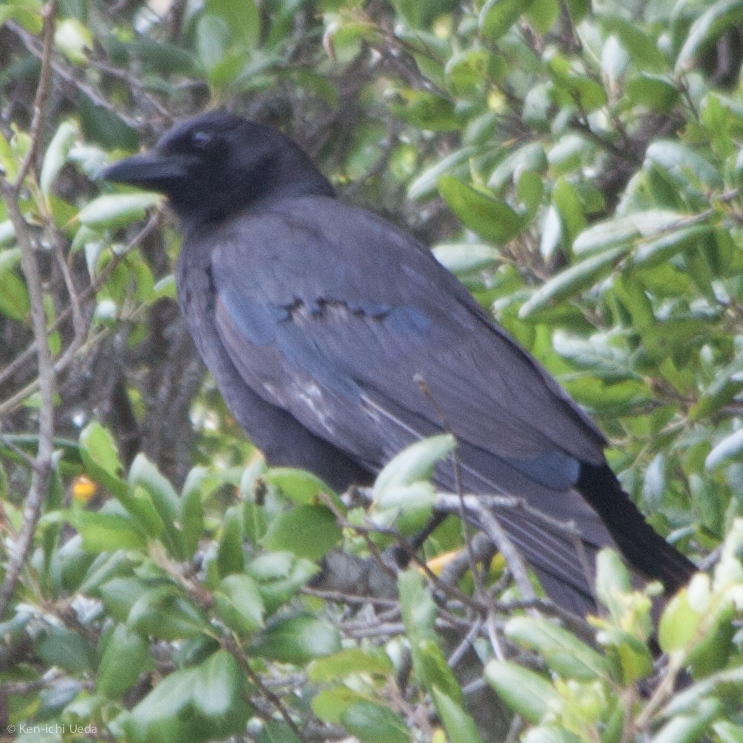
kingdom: Animalia
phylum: Chordata
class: Aves
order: Passeriformes
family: Corvidae
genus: Corvus
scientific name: Corvus brachyrhynchos
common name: American crow
